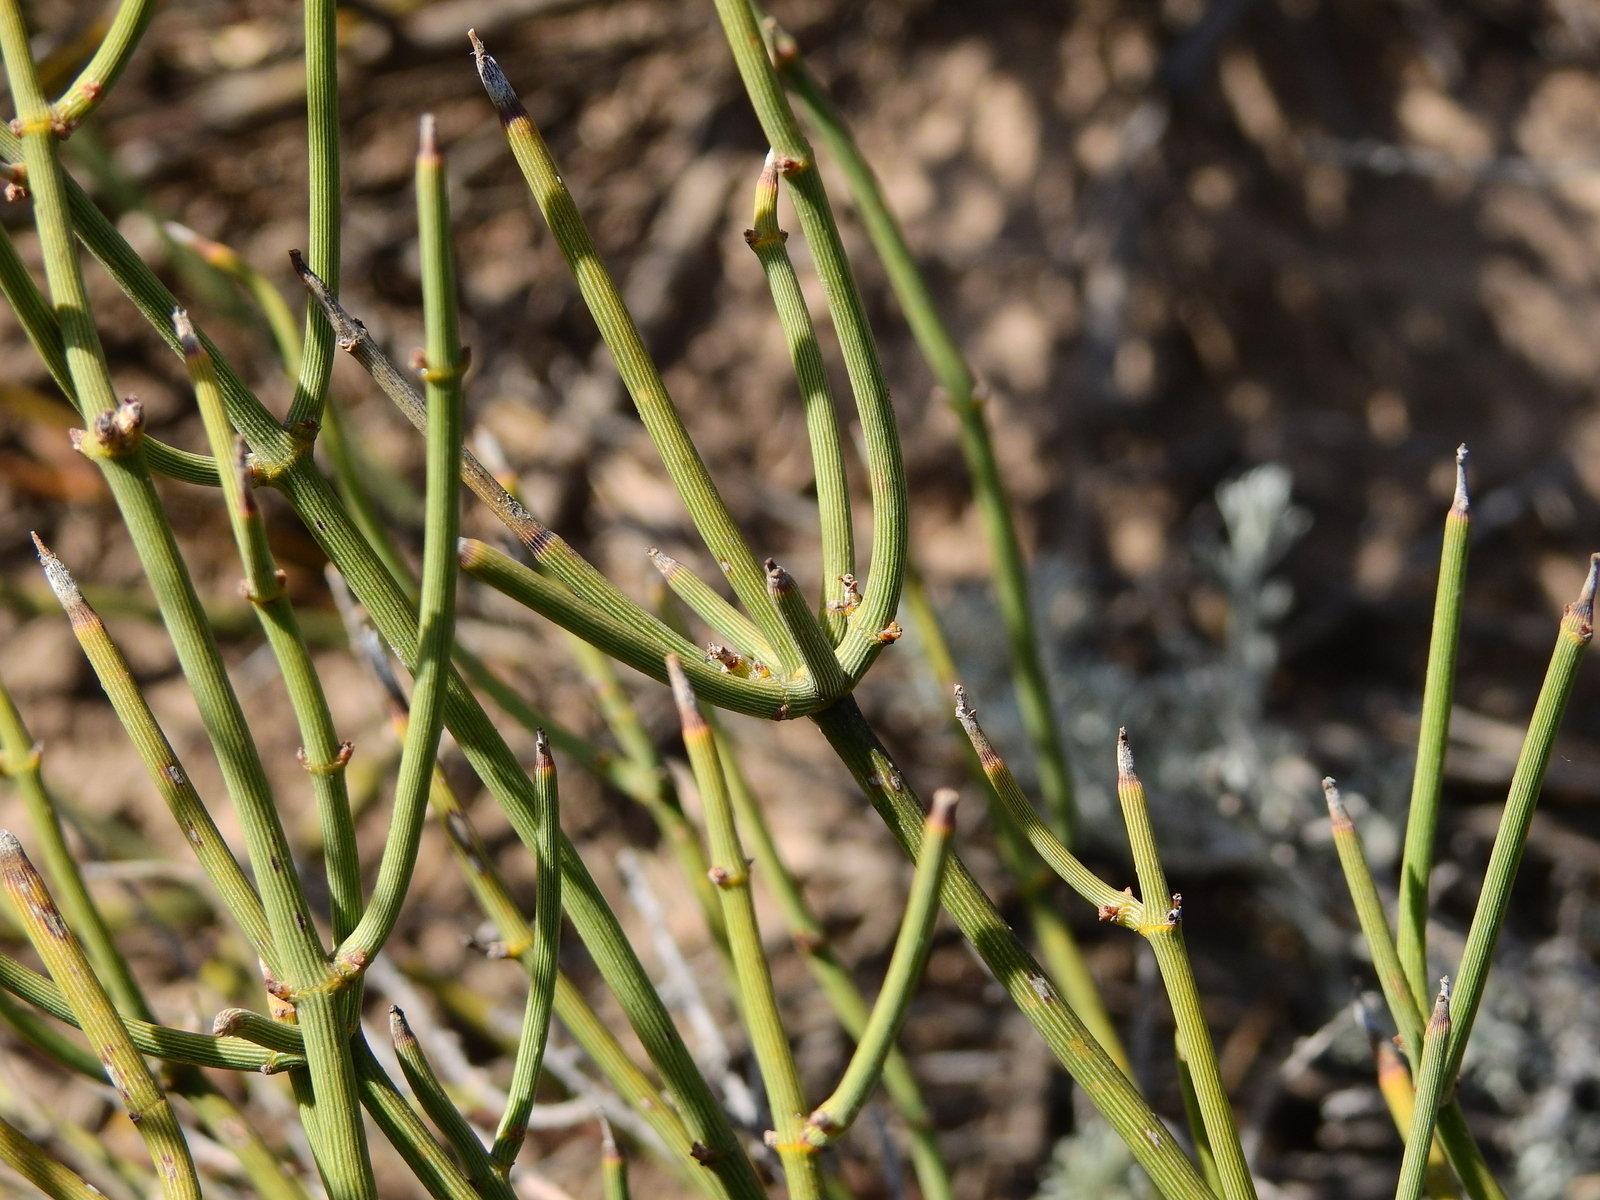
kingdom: Plantae
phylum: Tracheophyta
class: Magnoliopsida
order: Lamiales
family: Verbenaceae
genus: Neosparton
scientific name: Neosparton aphyllum
